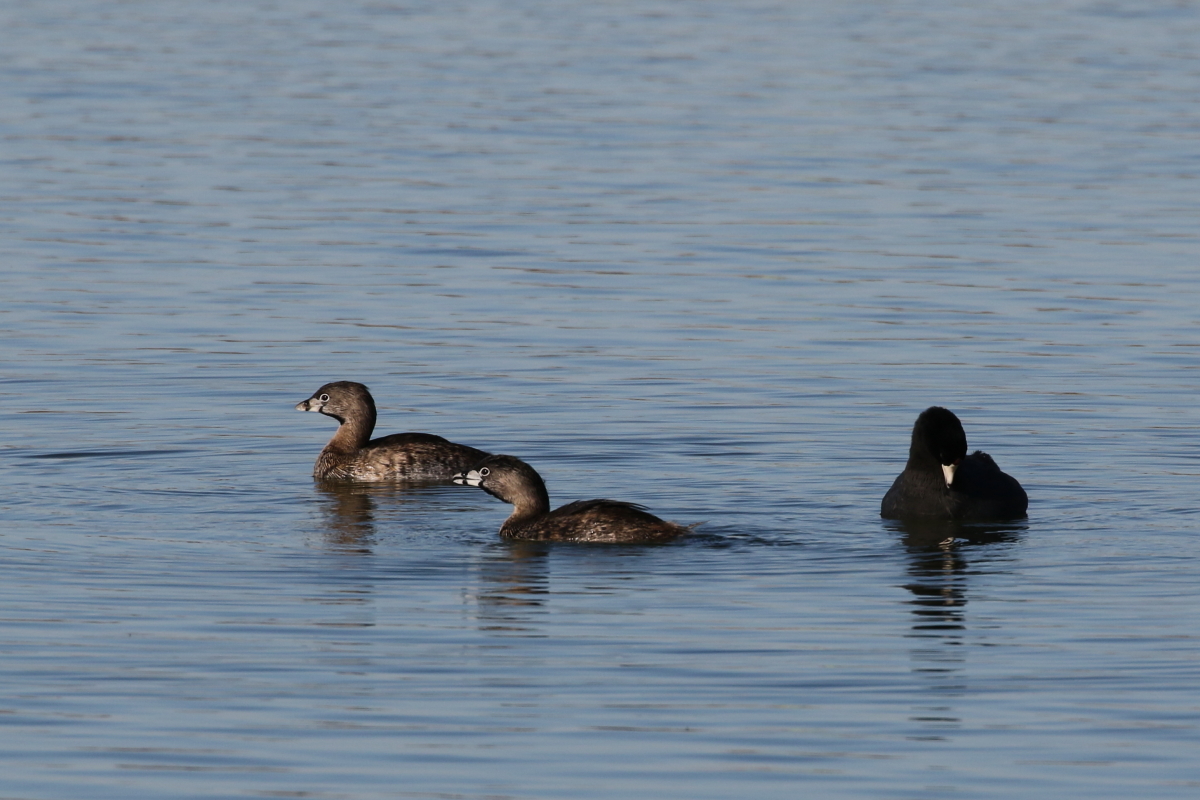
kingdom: Animalia
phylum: Chordata
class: Aves
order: Podicipediformes
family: Podicipedidae
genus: Podilymbus
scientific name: Podilymbus podiceps
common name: Pied-billed grebe
